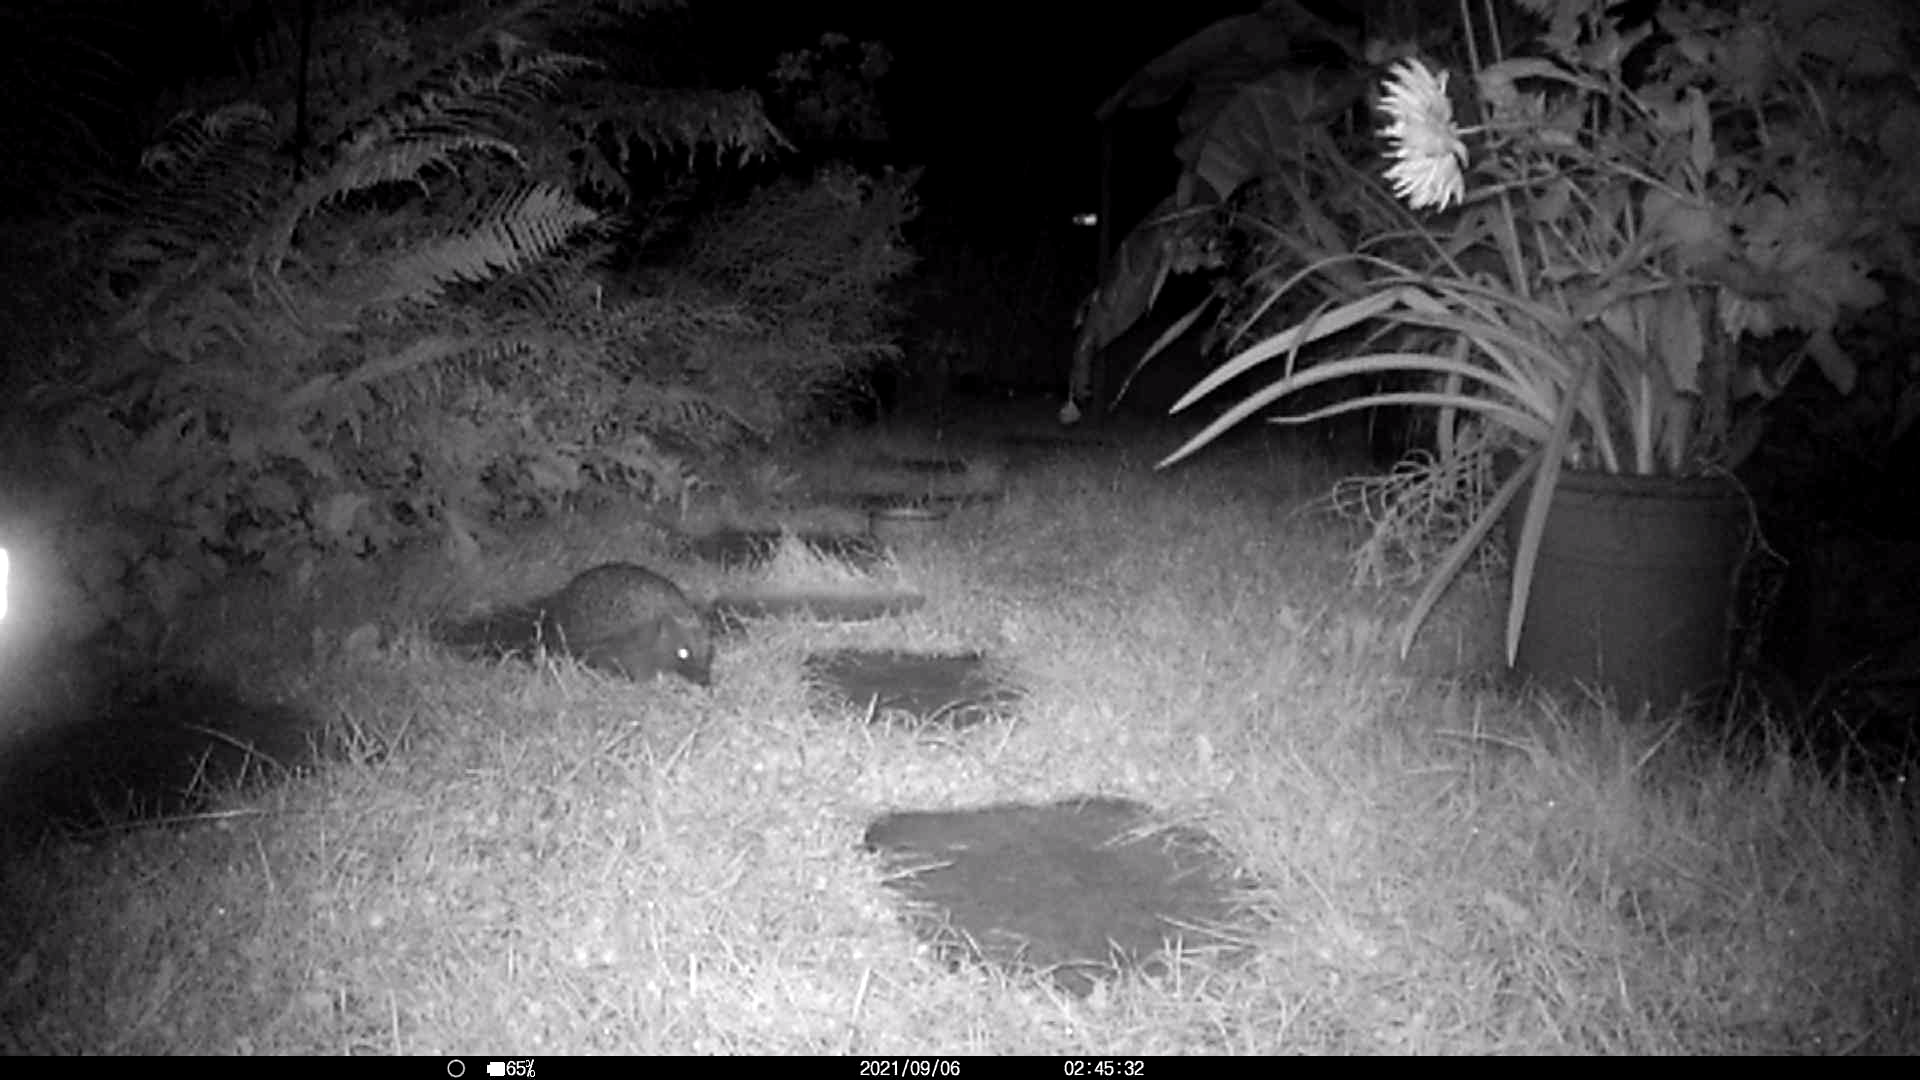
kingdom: Animalia
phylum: Chordata
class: Mammalia
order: Erinaceomorpha
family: Erinaceidae
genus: Erinaceus
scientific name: Erinaceus europaeus
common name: West european hedgehog
